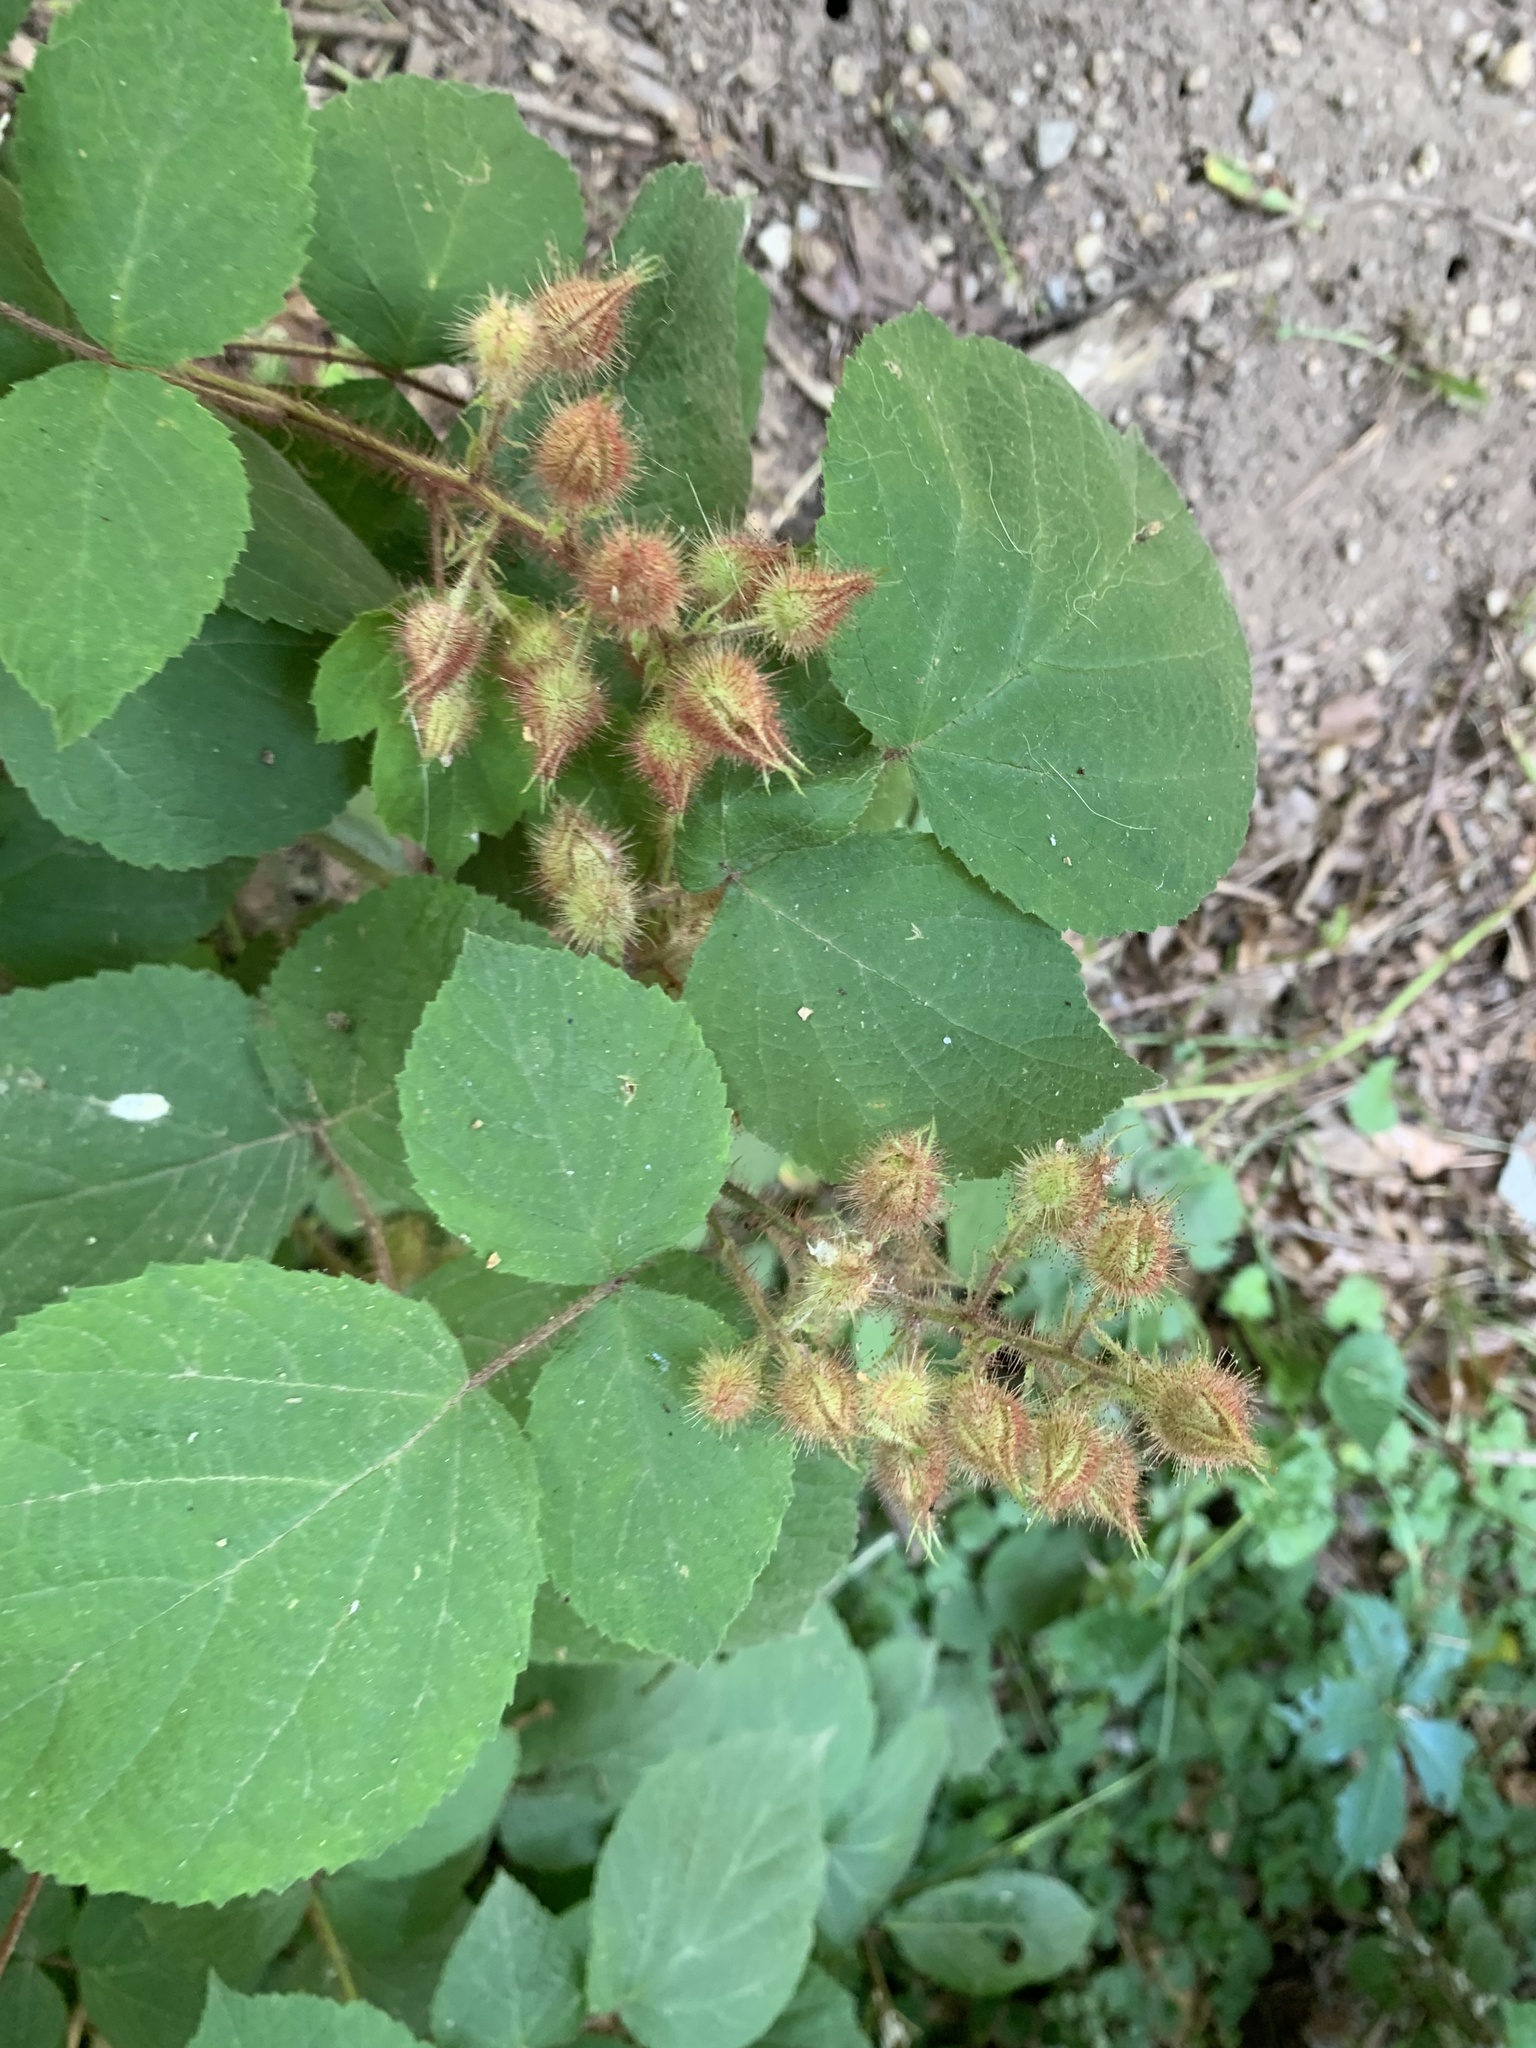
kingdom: Plantae
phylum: Tracheophyta
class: Magnoliopsida
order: Rosales
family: Rosaceae
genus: Rubus
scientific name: Rubus phoenicolasius
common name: Japanese wineberry
